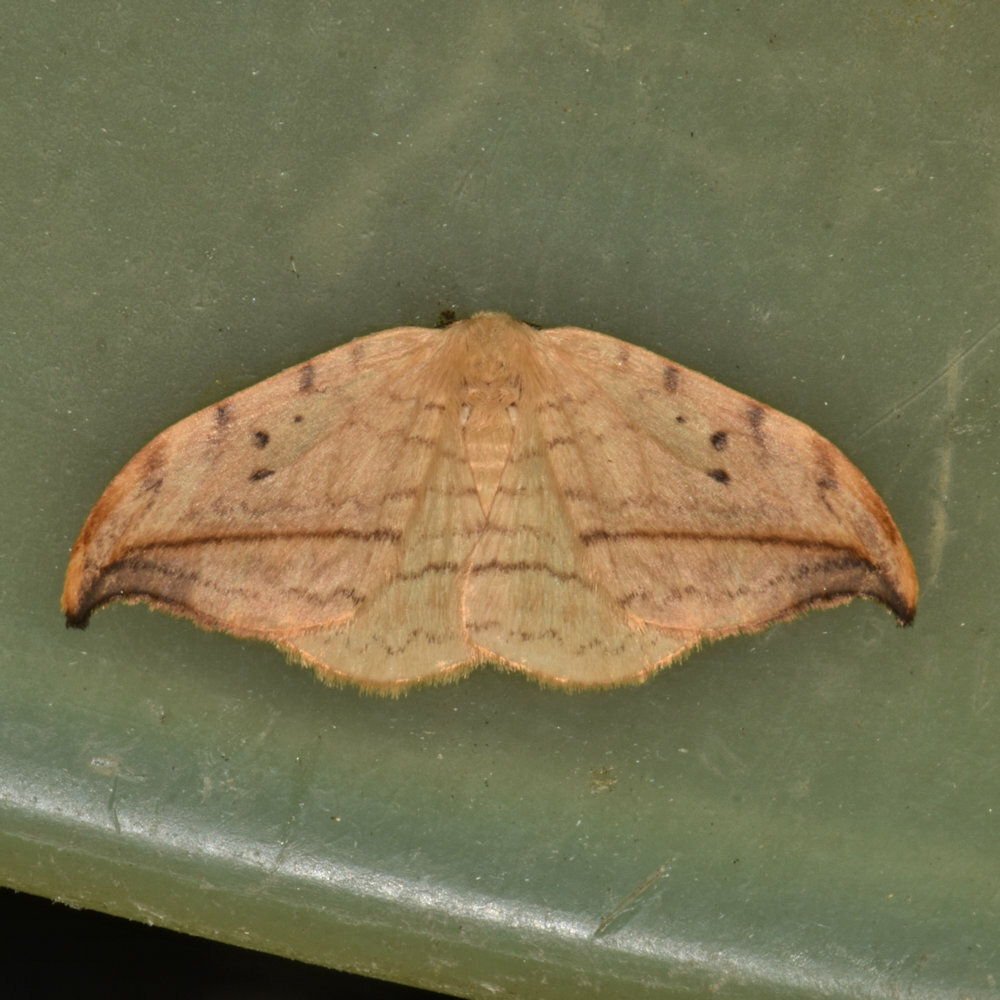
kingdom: Animalia
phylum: Arthropoda
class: Insecta
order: Lepidoptera
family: Drepanidae
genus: Drepana
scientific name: Drepana arcuata
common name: Arched hooktip moth
